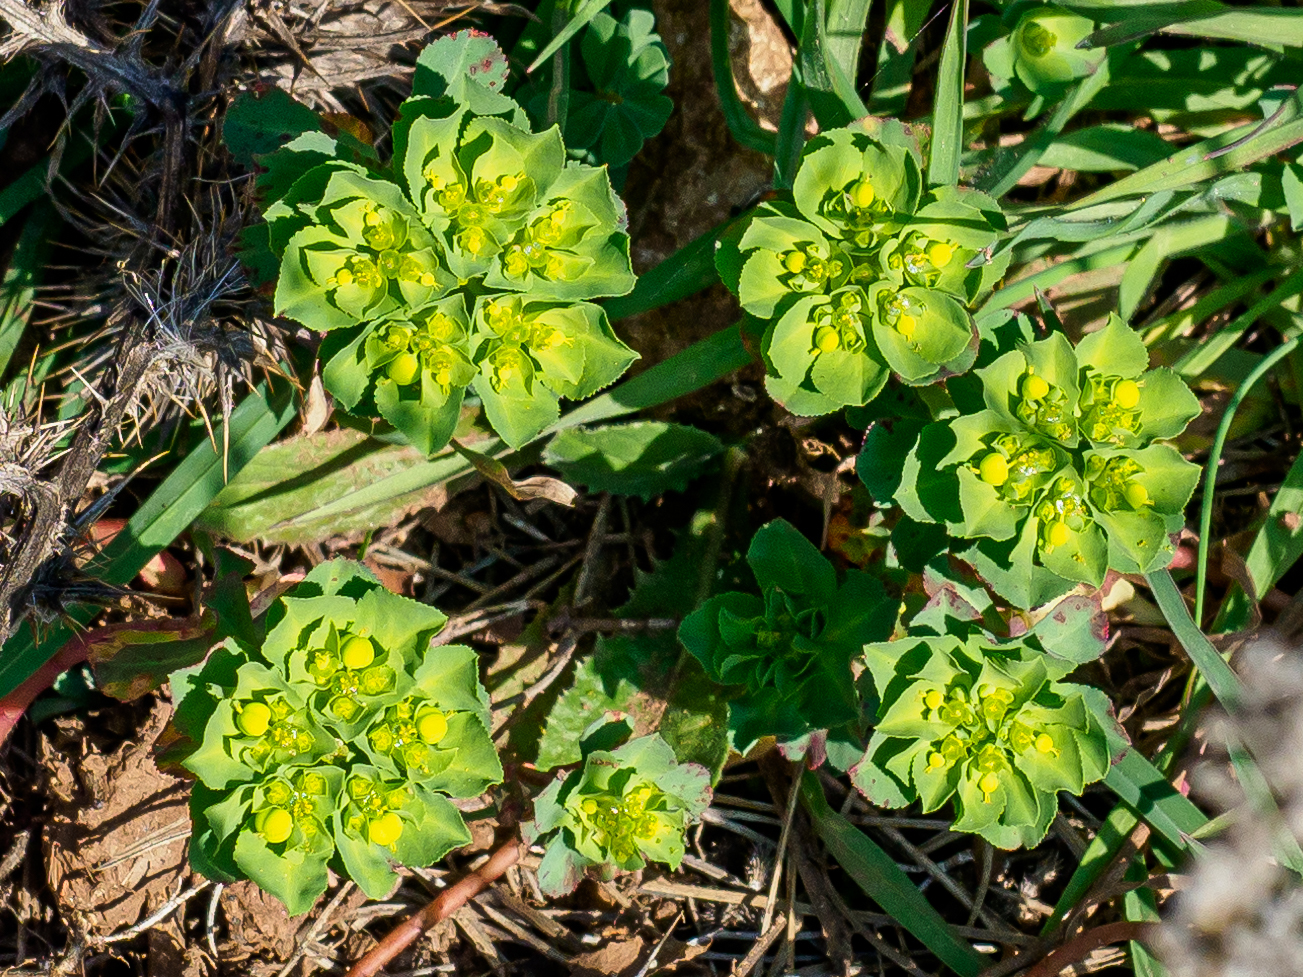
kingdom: Plantae
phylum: Tracheophyta
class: Magnoliopsida
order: Malpighiales
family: Euphorbiaceae
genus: Euphorbia
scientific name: Euphorbia helioscopia
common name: Sun spurge
